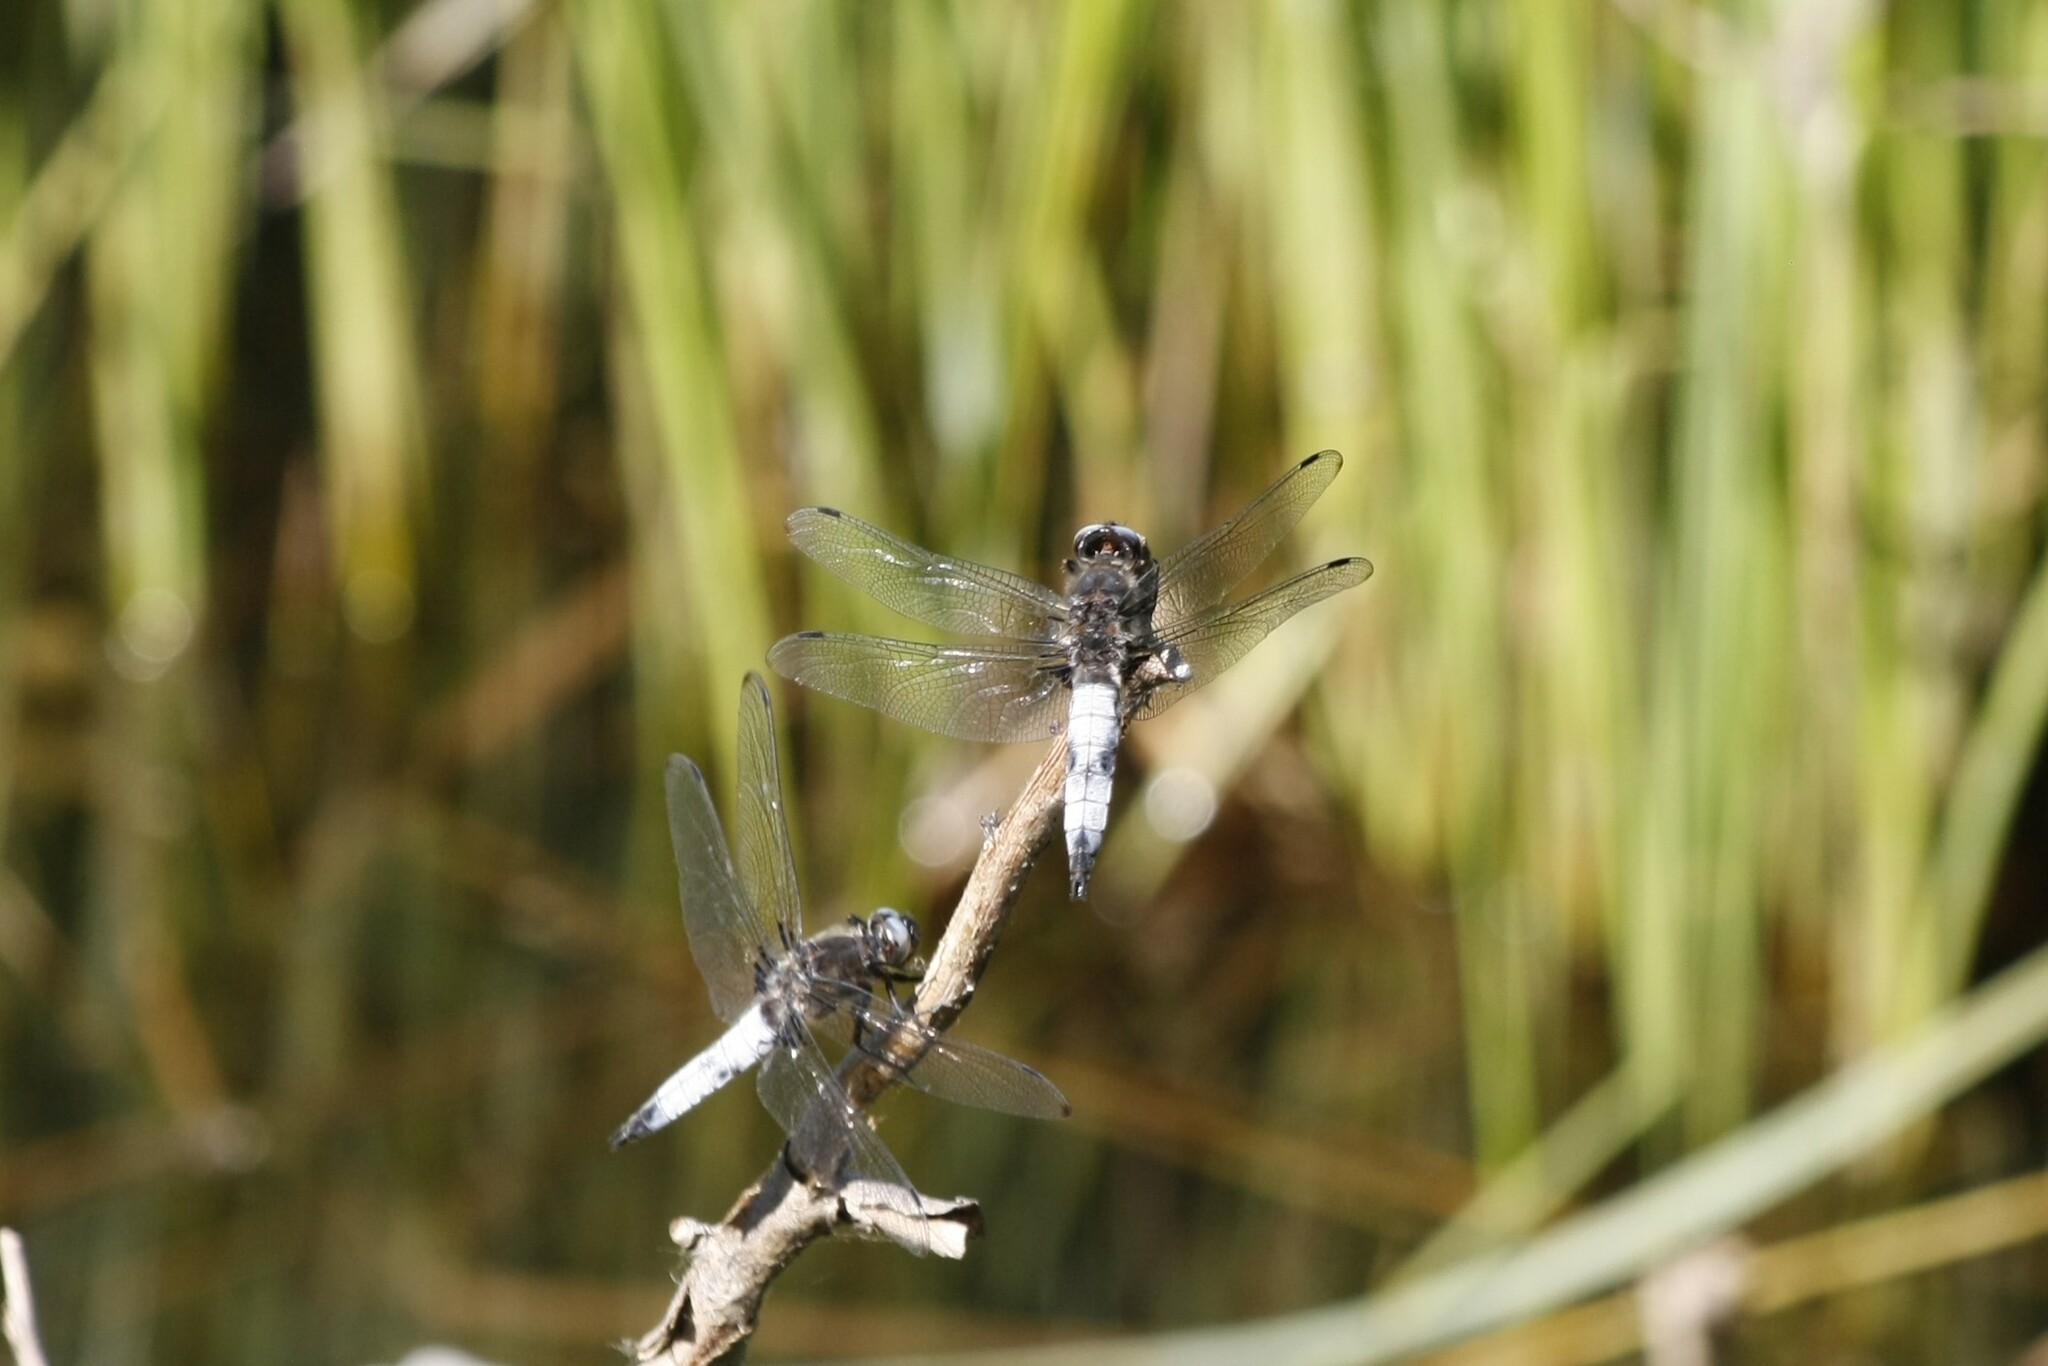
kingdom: Animalia
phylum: Arthropoda
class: Insecta
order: Odonata
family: Libellulidae
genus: Libellula
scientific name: Libellula fulva
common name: Blue chaser
